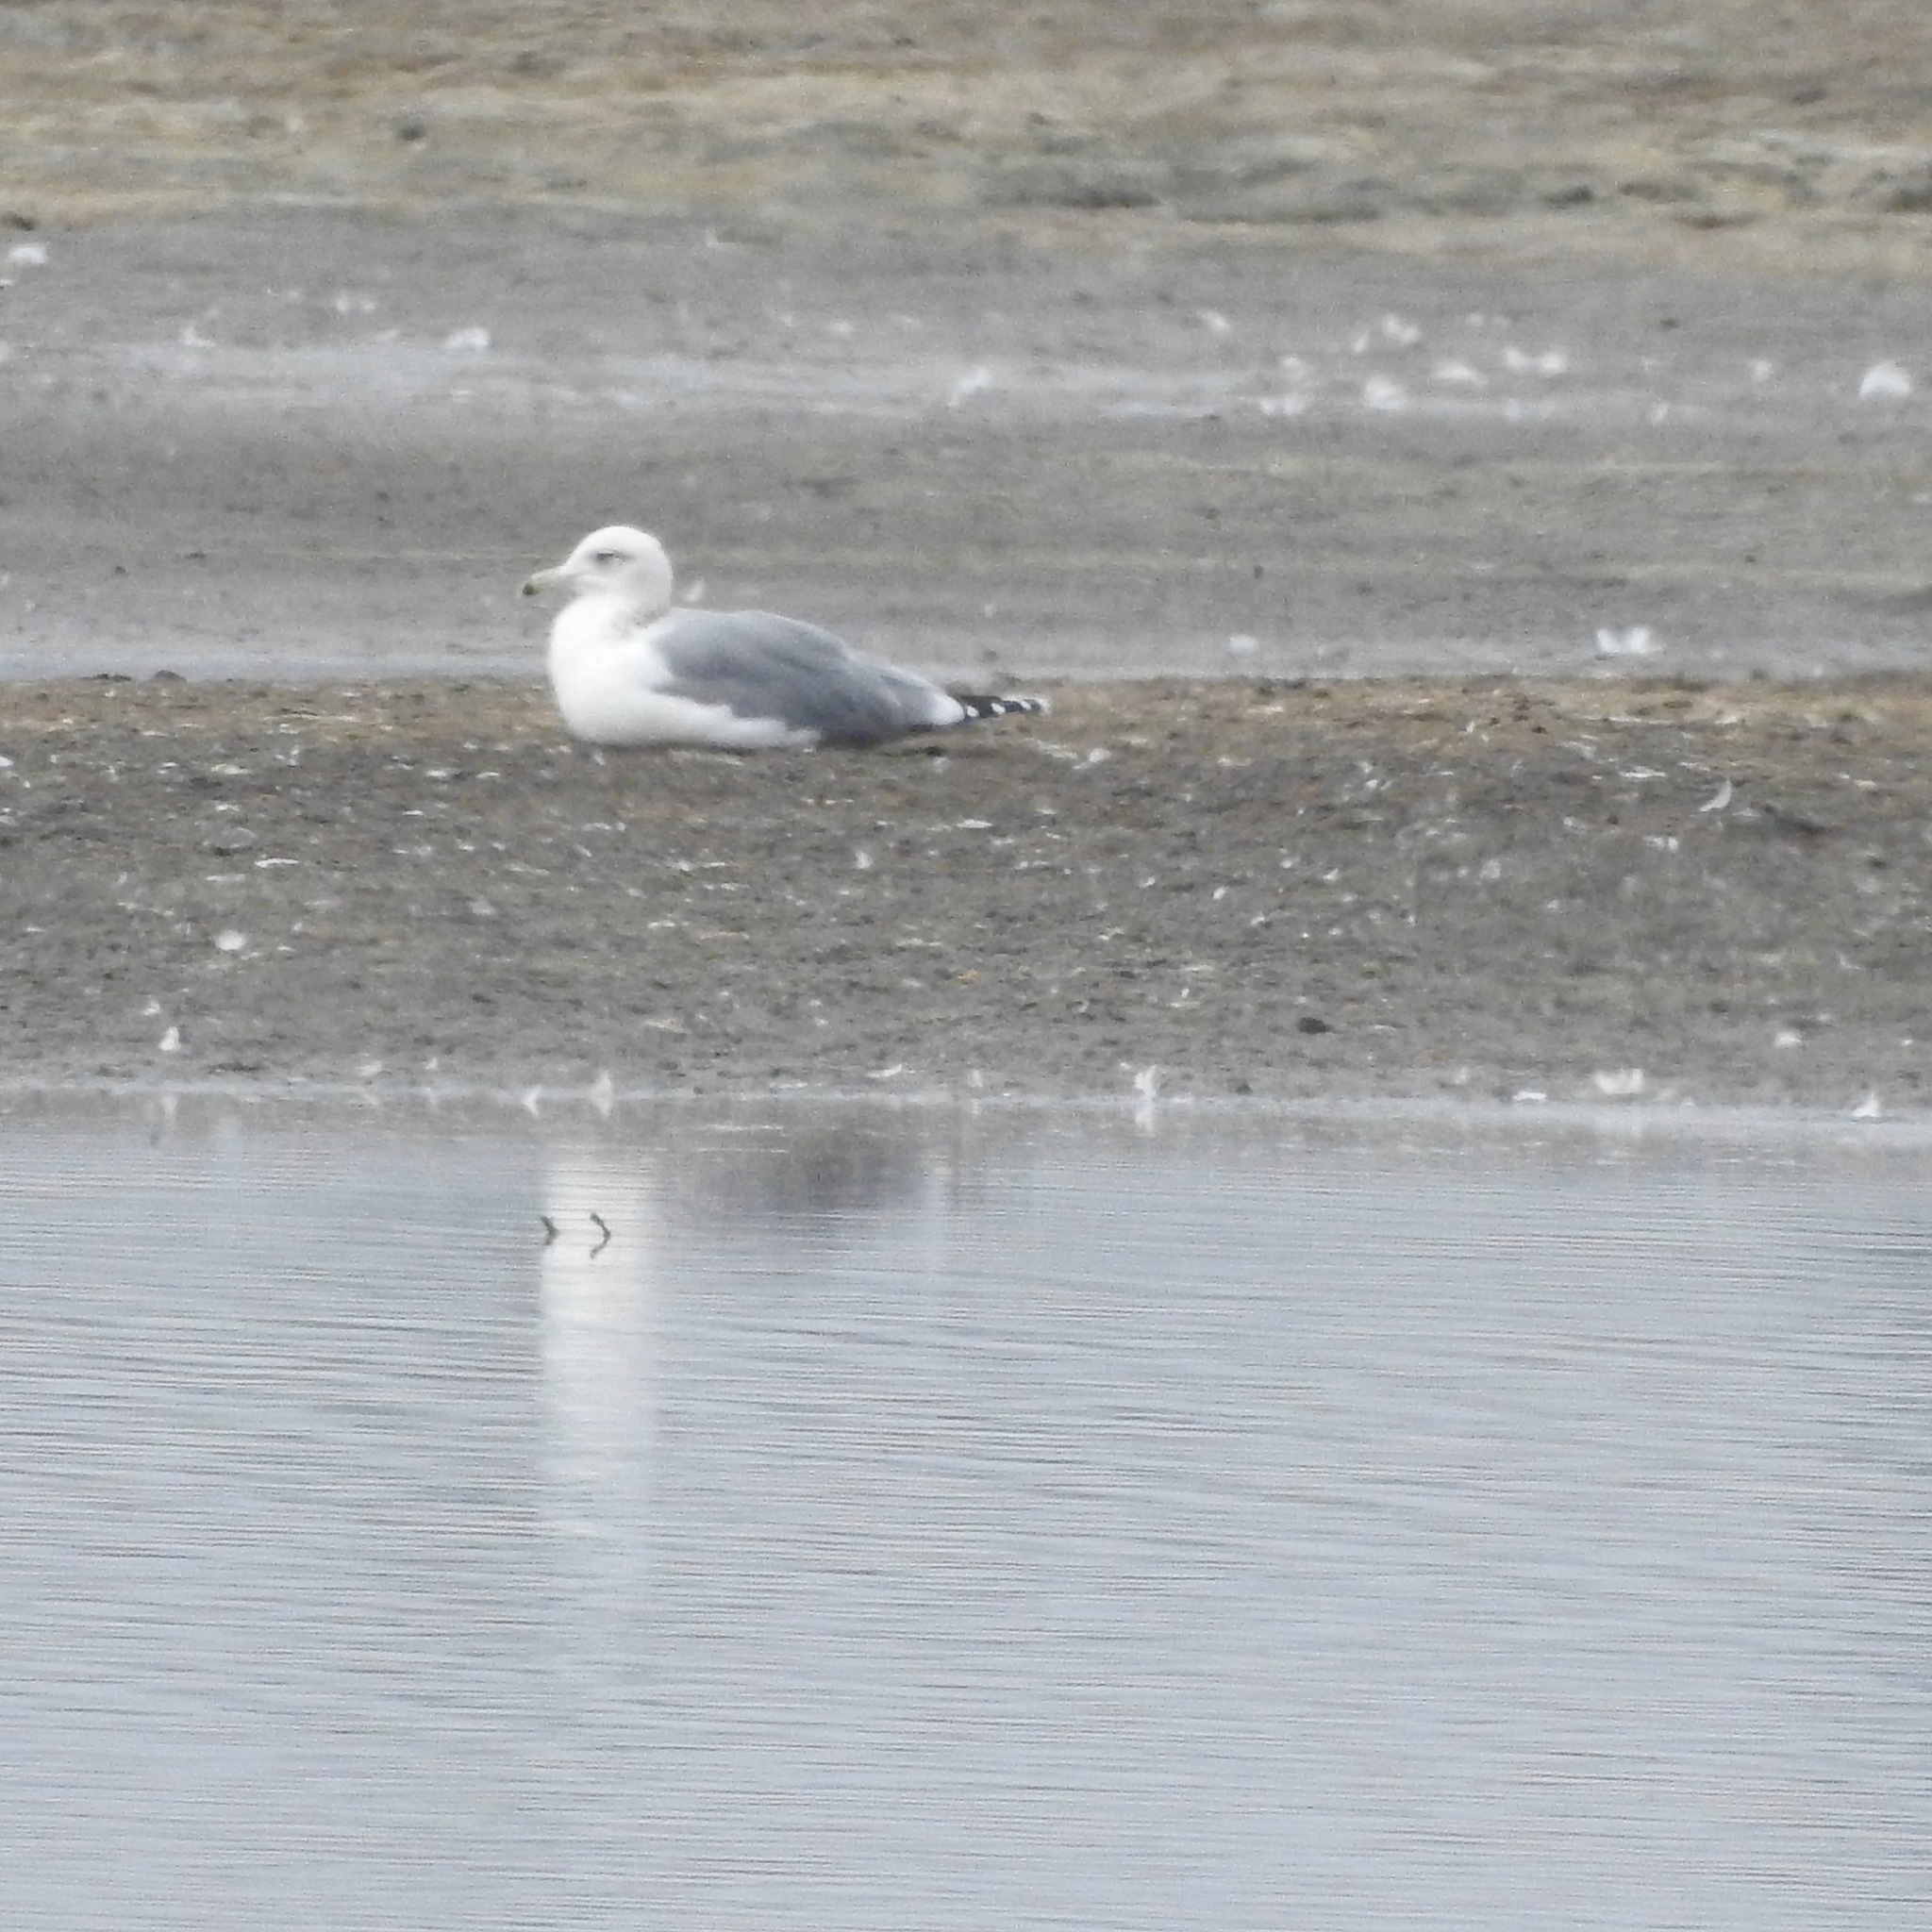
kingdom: Animalia
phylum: Chordata
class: Aves
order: Charadriiformes
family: Laridae
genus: Larus
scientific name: Larus californicus
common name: California gull
